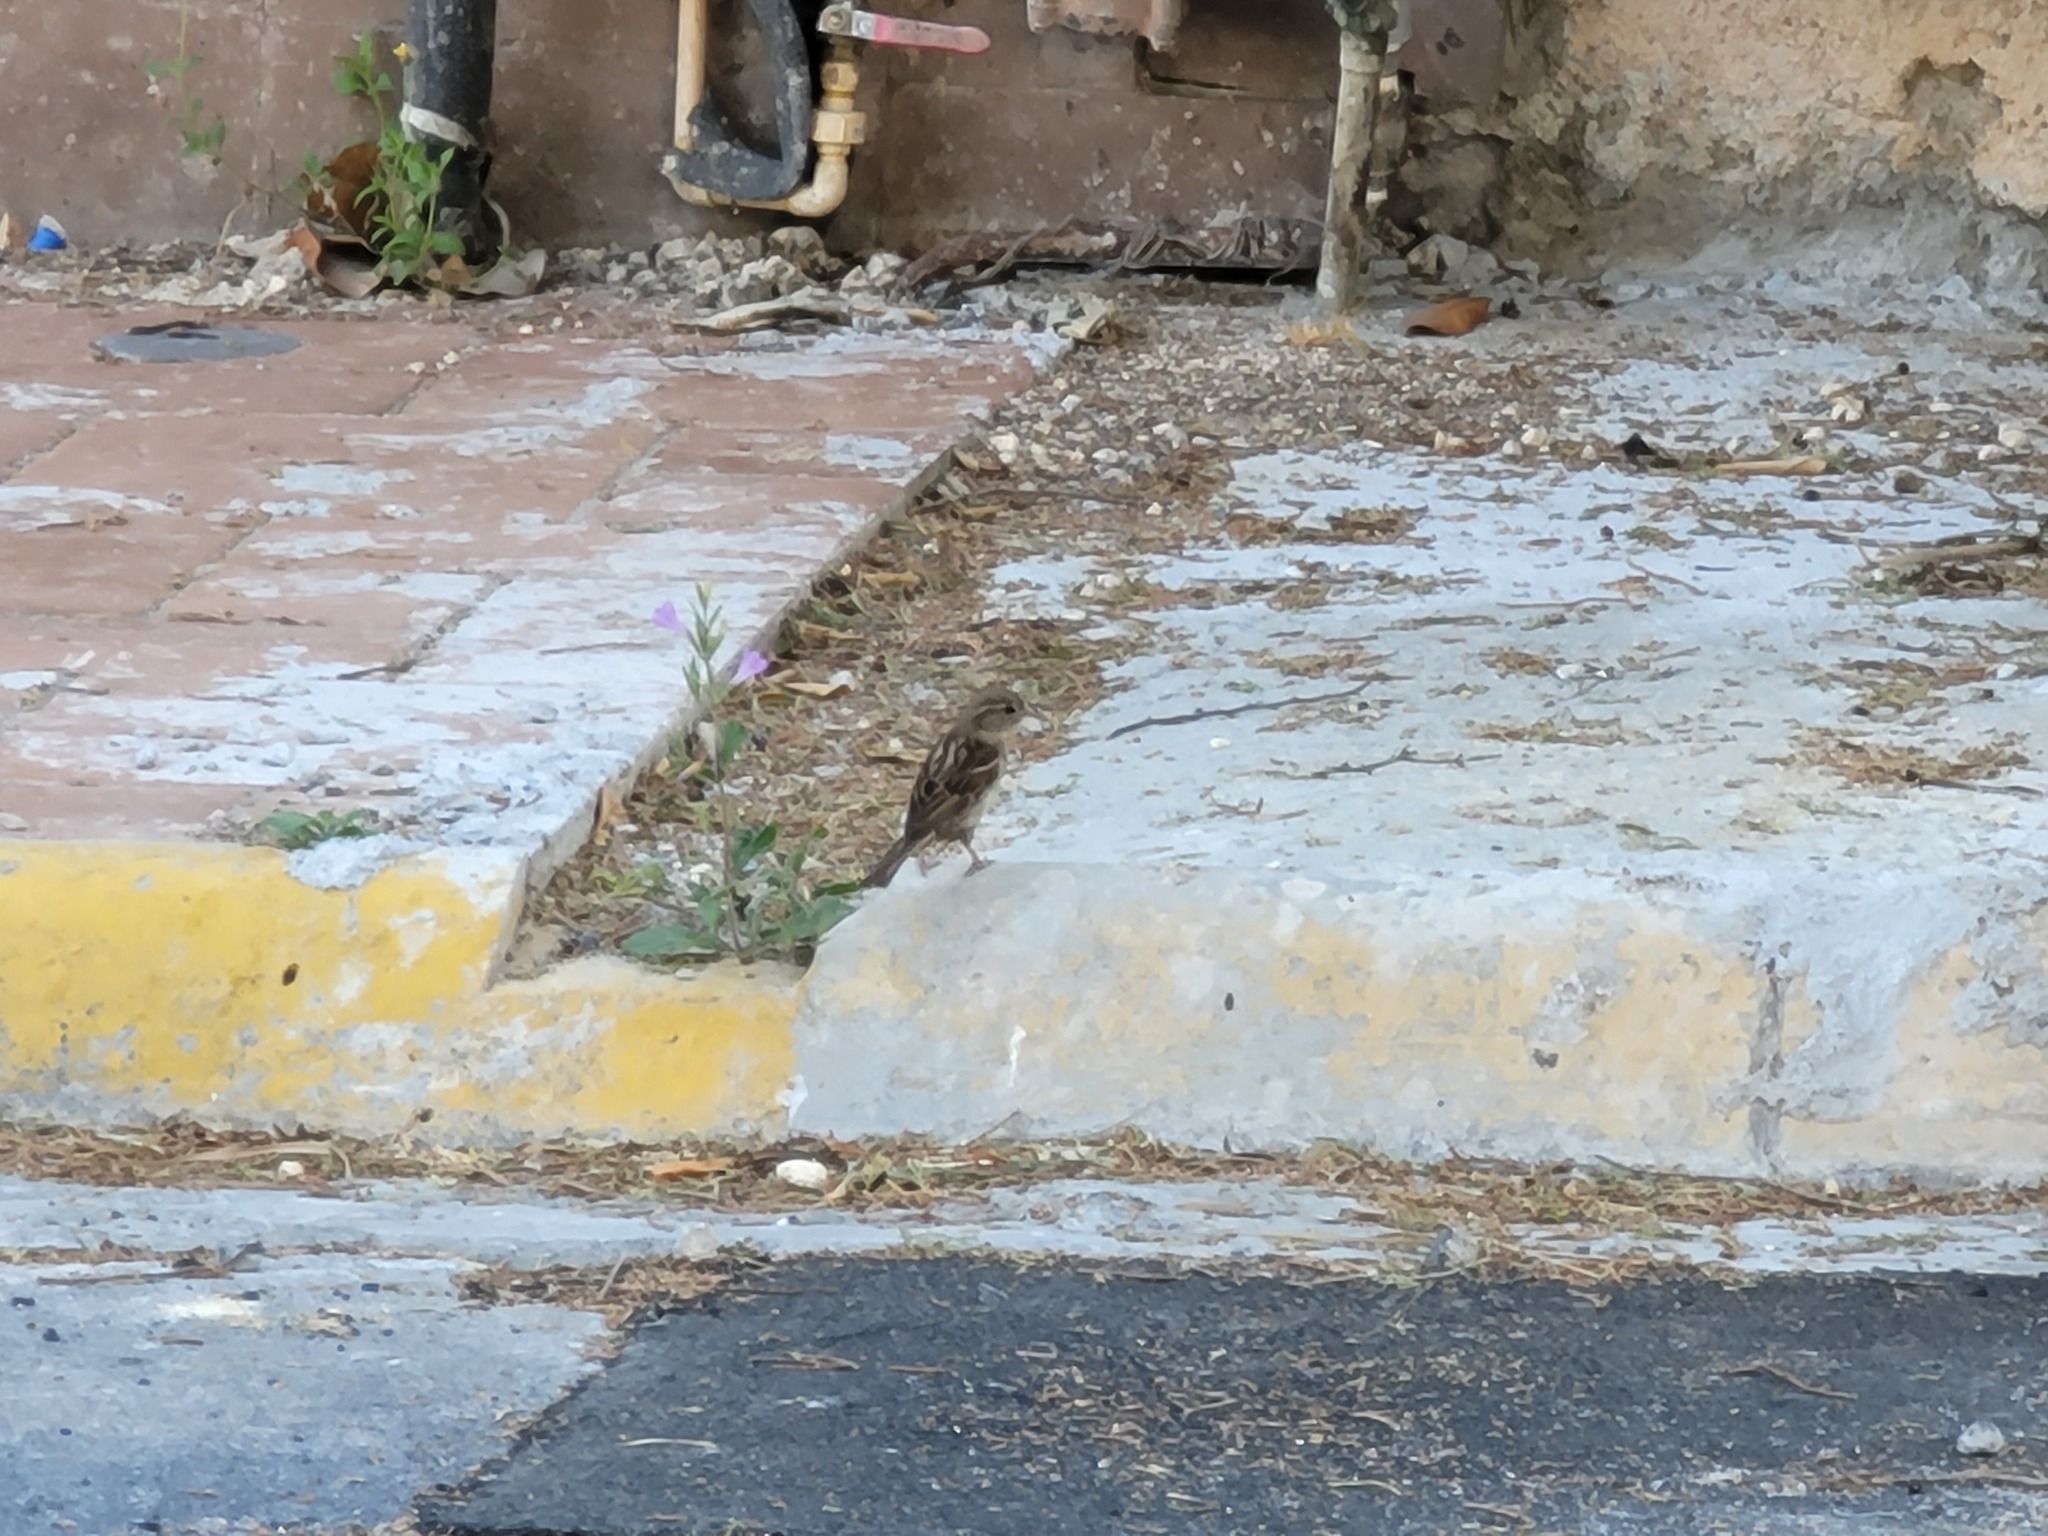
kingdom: Animalia
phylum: Chordata
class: Aves
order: Passeriformes
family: Passeridae
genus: Passer
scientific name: Passer domesticus
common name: House sparrow
